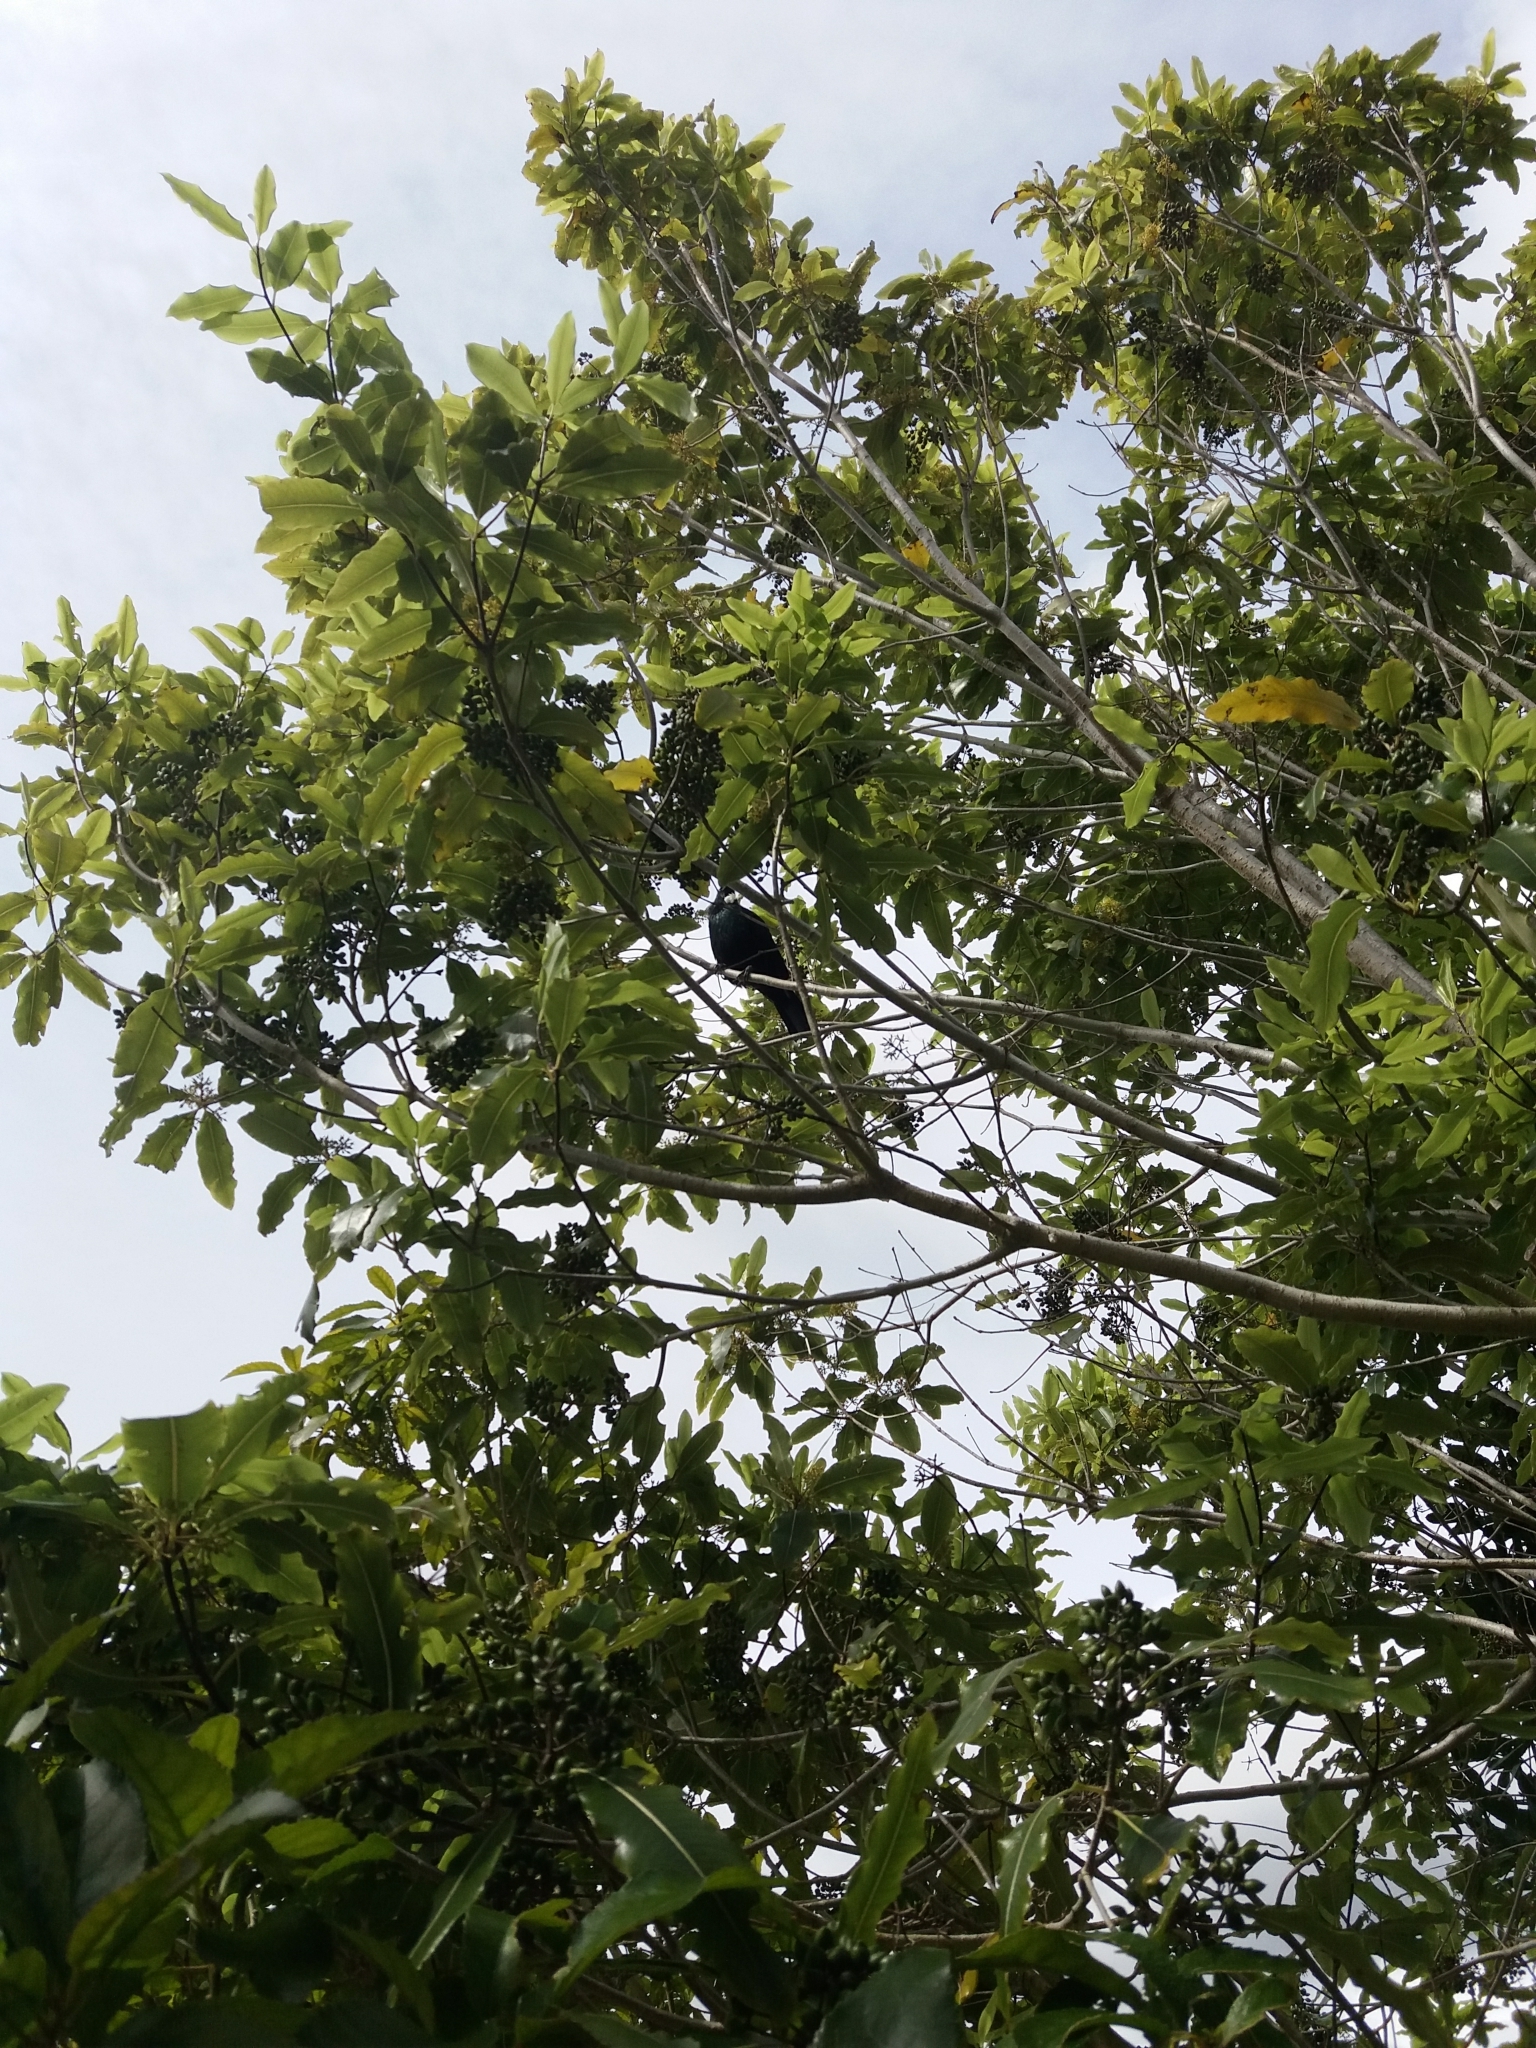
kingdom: Animalia
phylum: Chordata
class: Aves
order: Passeriformes
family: Meliphagidae
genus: Prosthemadera
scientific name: Prosthemadera novaeseelandiae
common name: Tui
